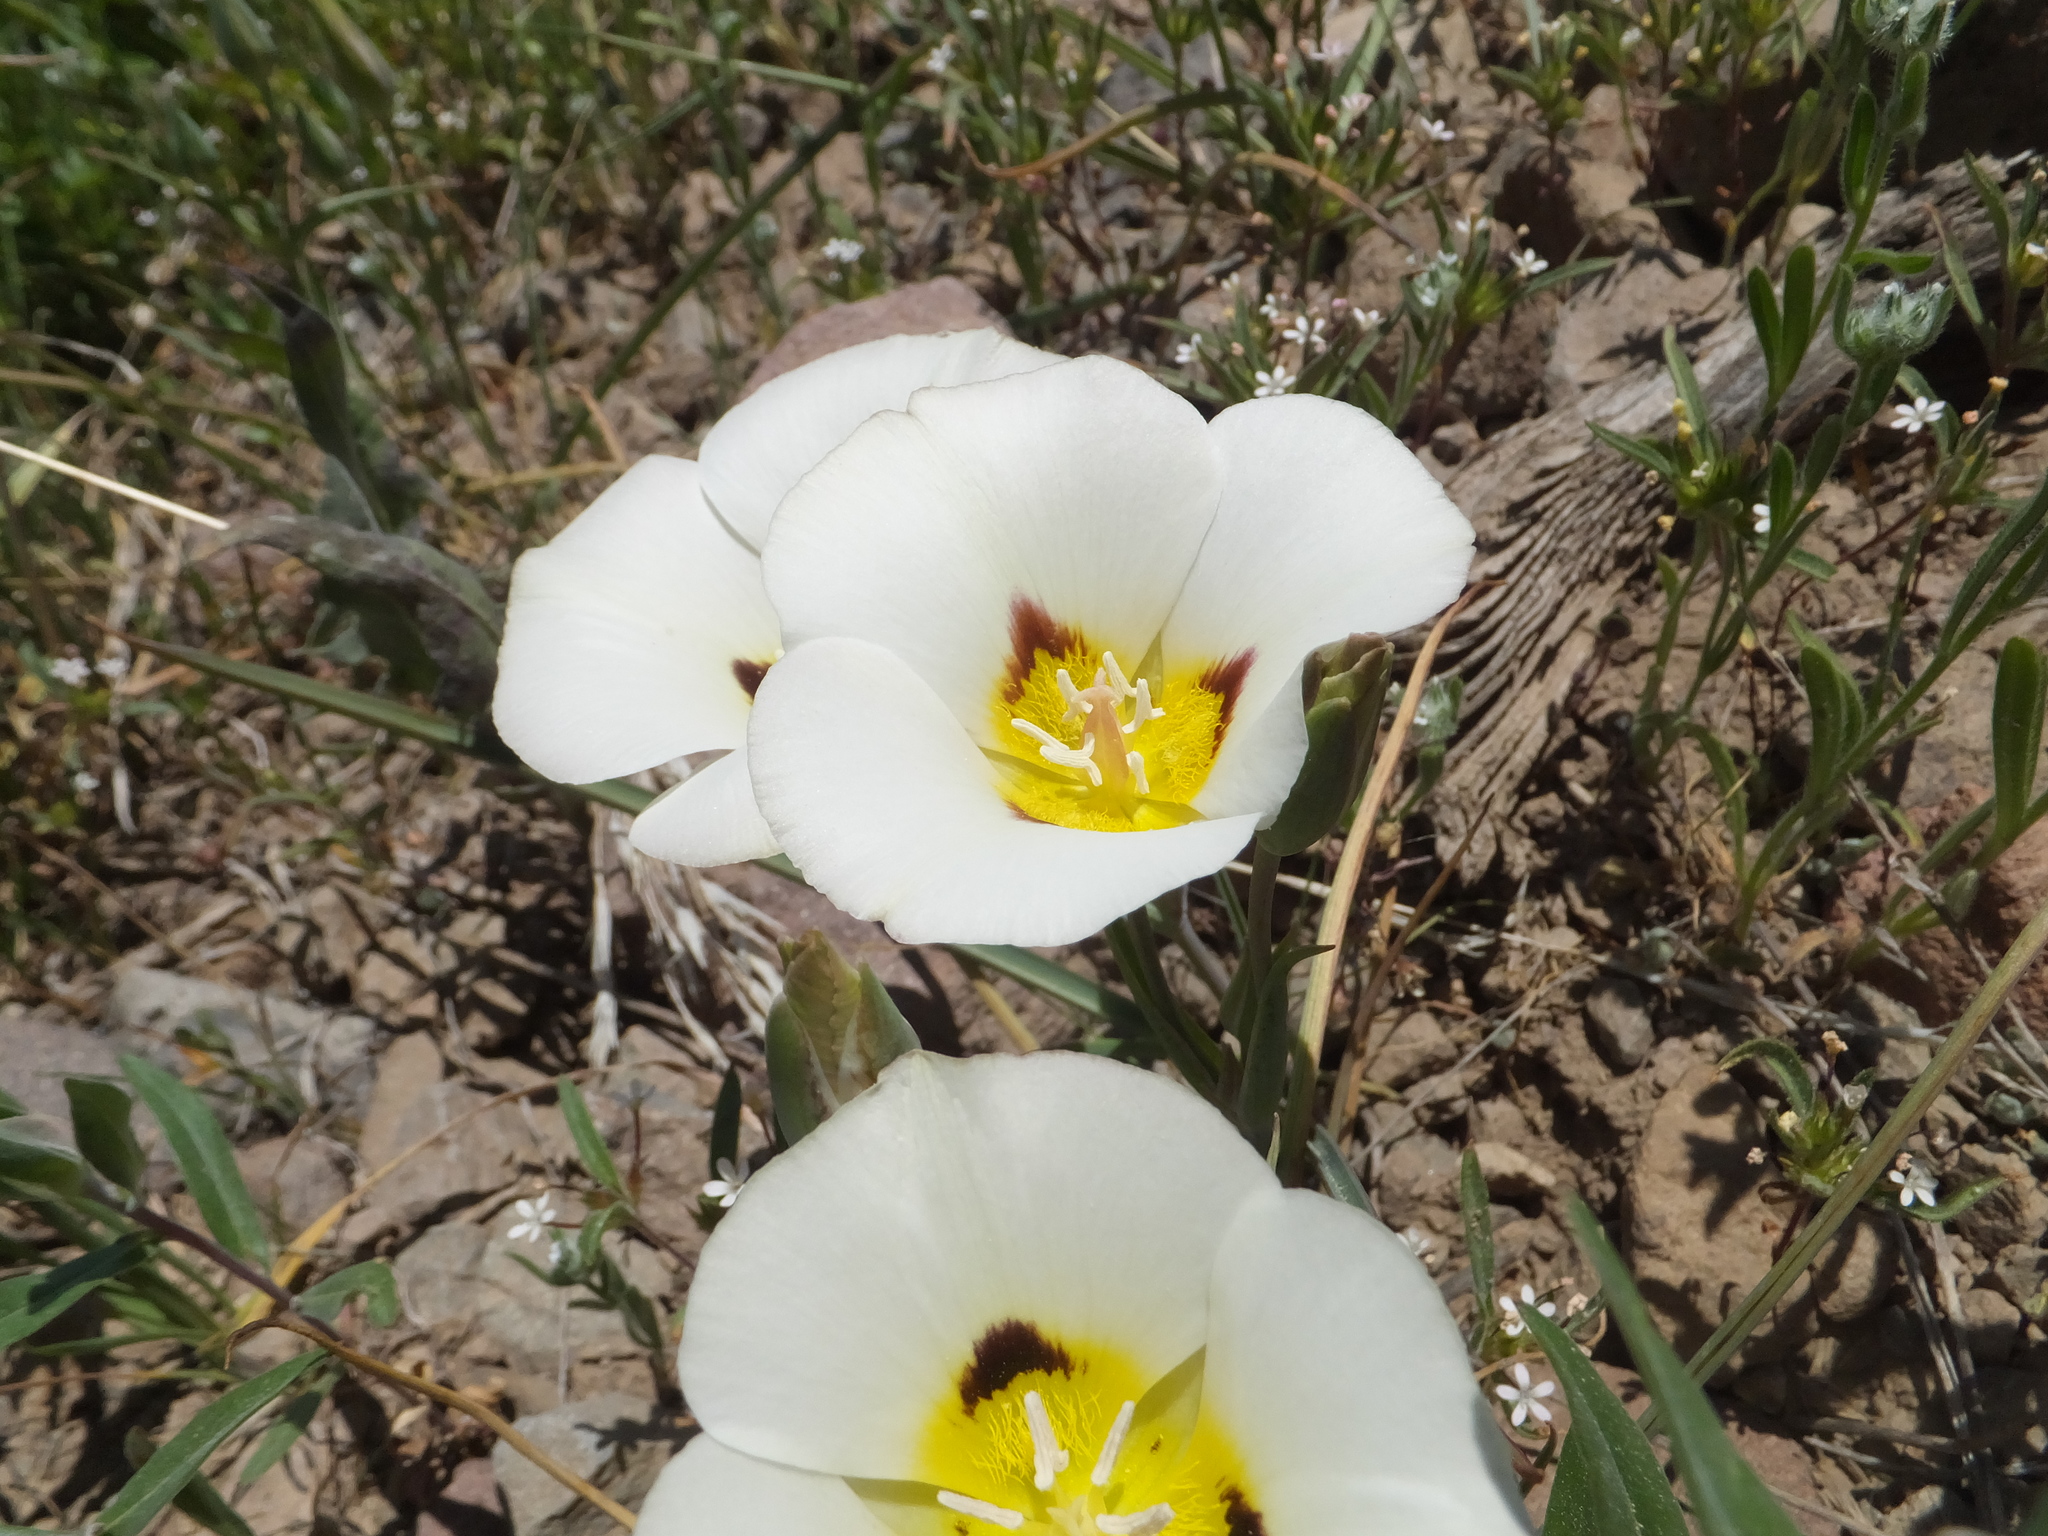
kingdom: Plantae
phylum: Tracheophyta
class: Liliopsida
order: Liliales
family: Liliaceae
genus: Calochortus
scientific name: Calochortus leichtlinii
